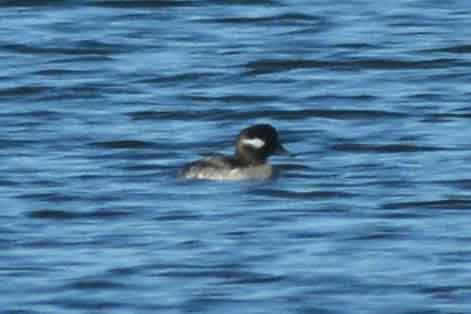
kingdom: Animalia
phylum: Chordata
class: Aves
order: Anseriformes
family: Anatidae
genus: Bucephala
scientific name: Bucephala albeola
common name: Bufflehead
